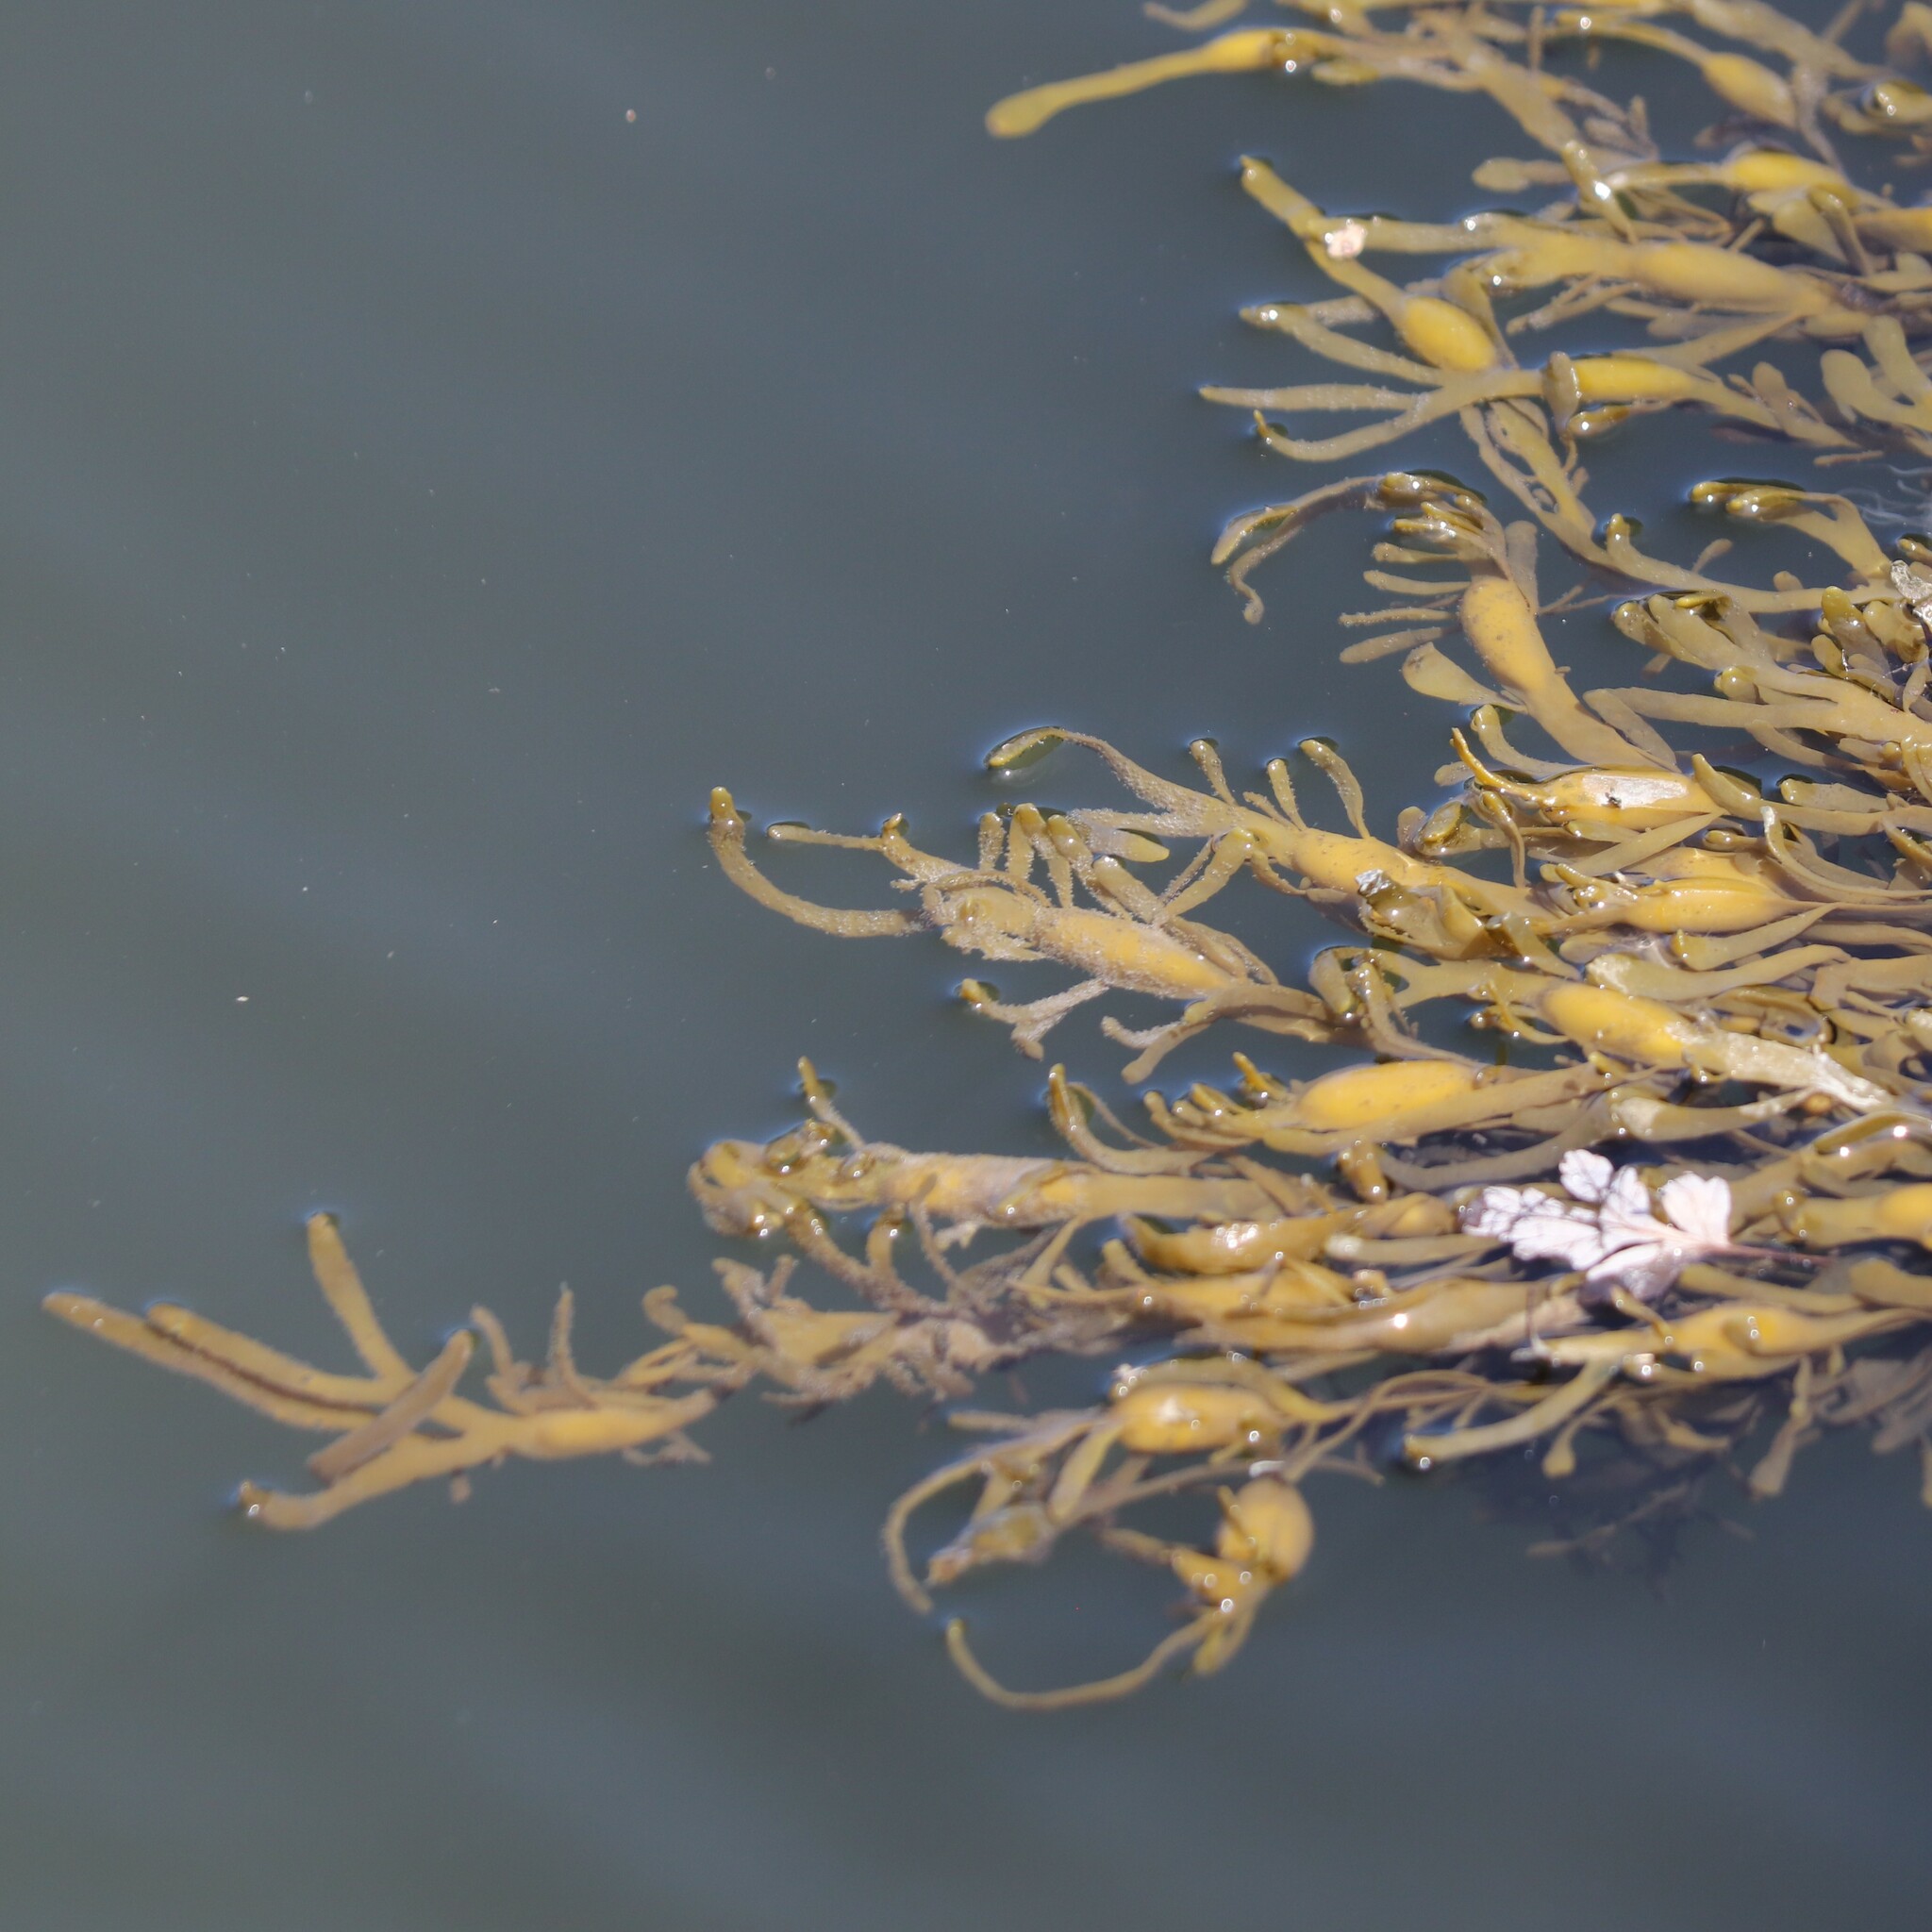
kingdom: Chromista
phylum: Ochrophyta
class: Phaeophyceae
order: Fucales
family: Fucaceae
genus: Ascophyllum
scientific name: Ascophyllum nodosum
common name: Knotted wrack
